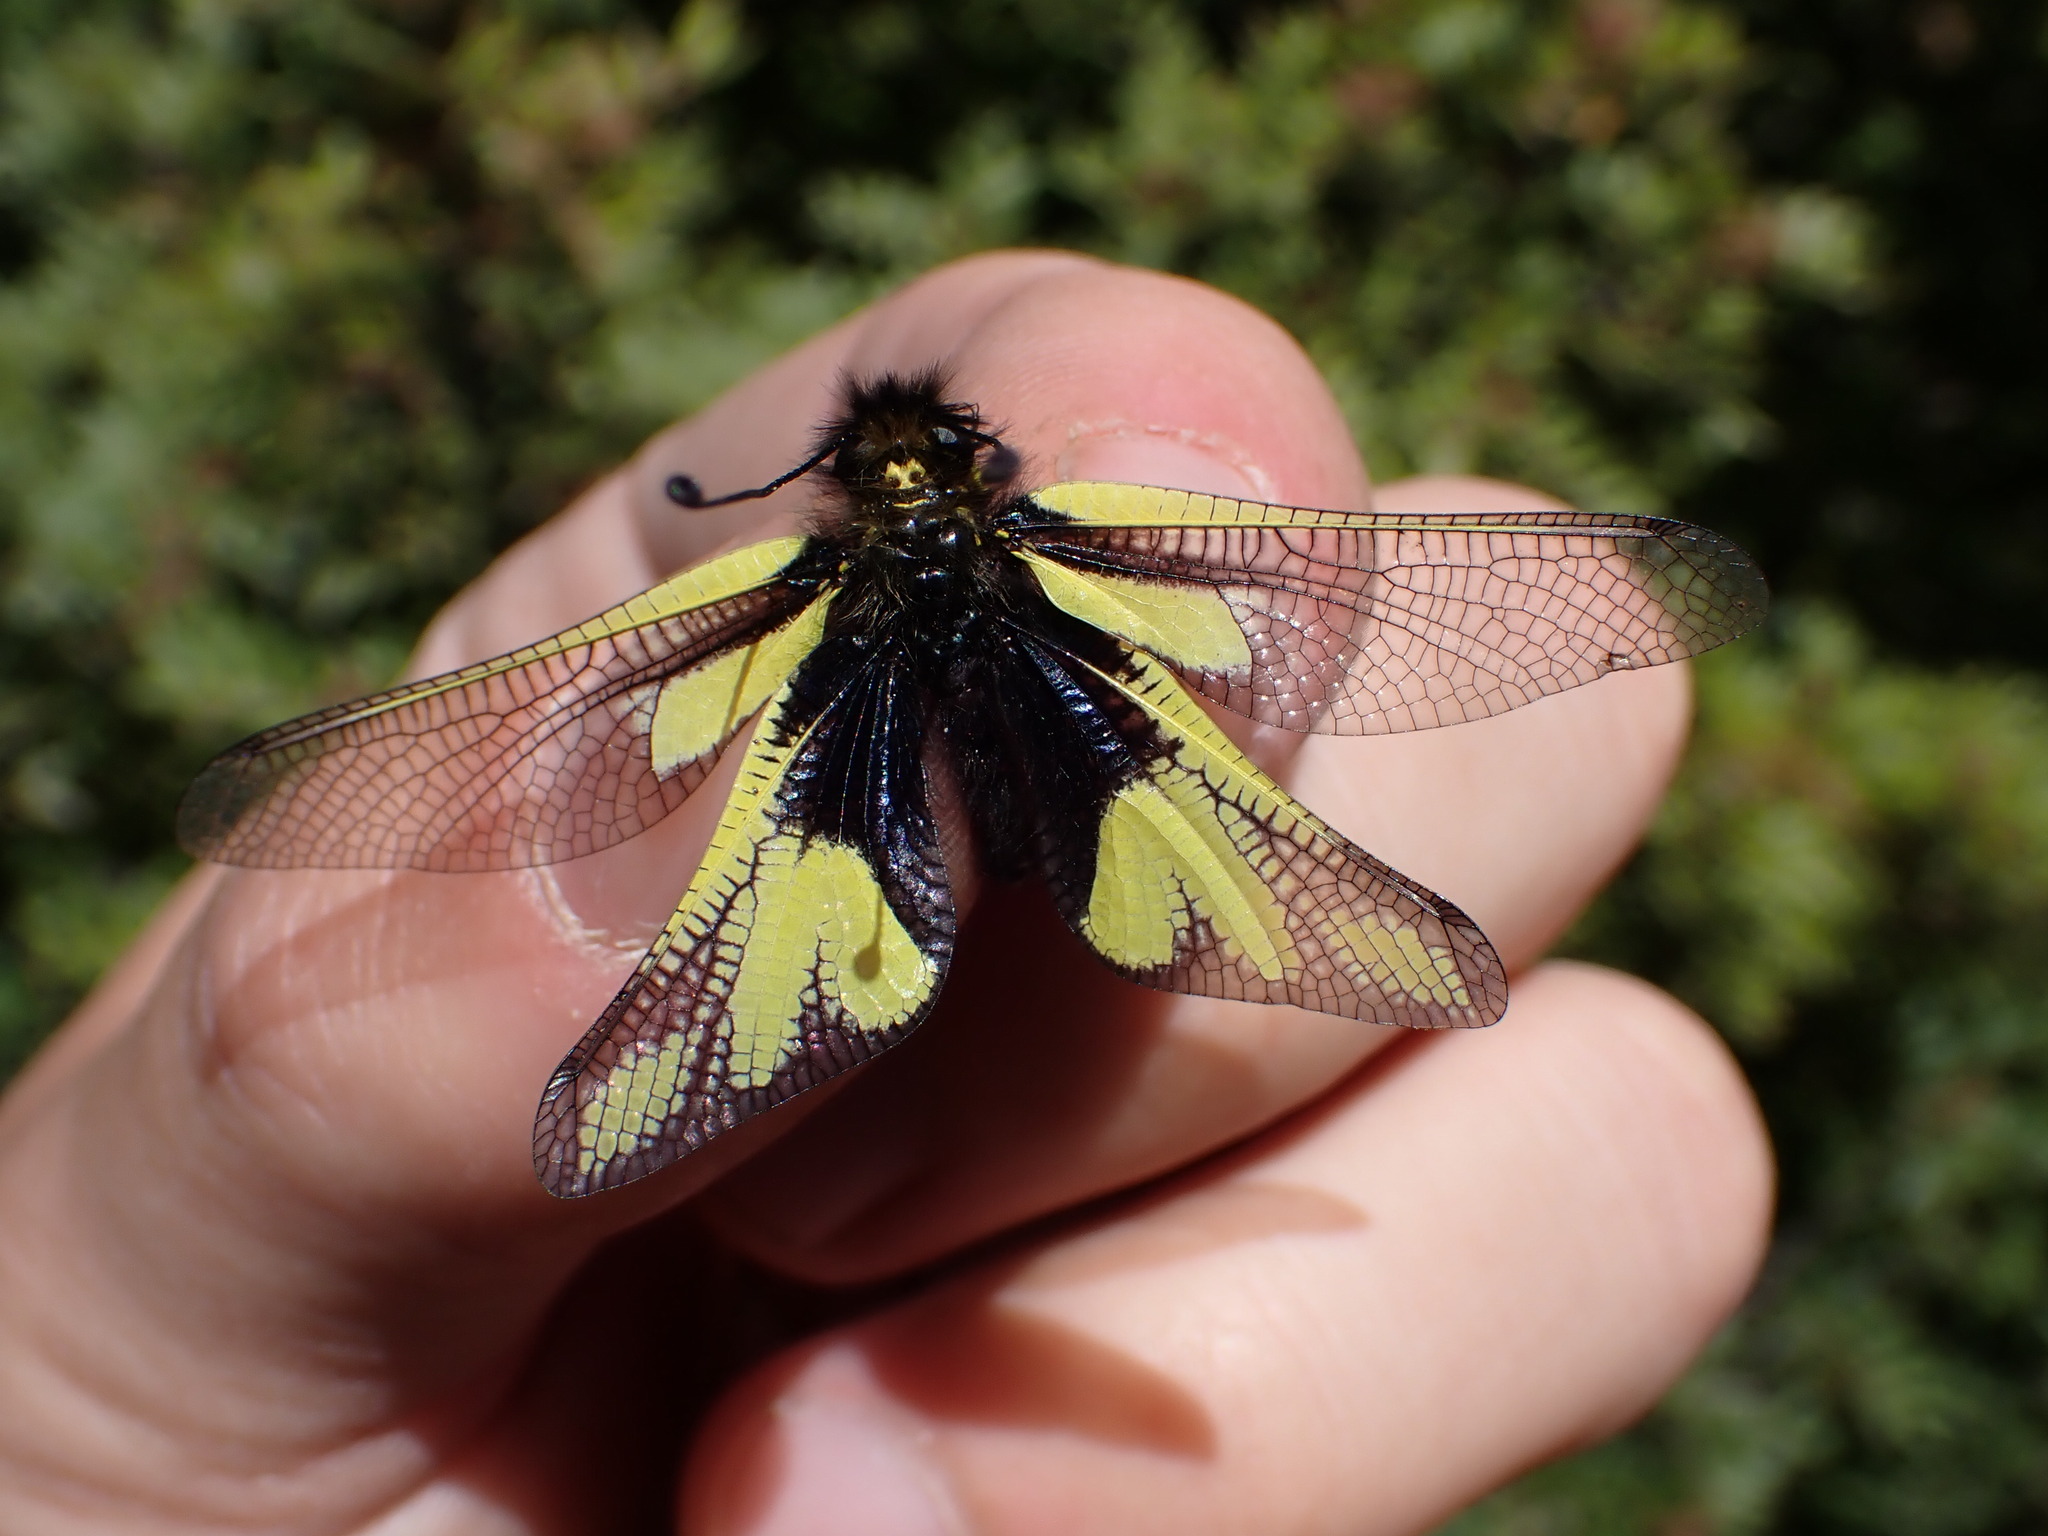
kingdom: Animalia
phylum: Arthropoda
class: Insecta
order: Neuroptera
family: Ascalaphidae
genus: Libelloides
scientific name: Libelloides coccajus
